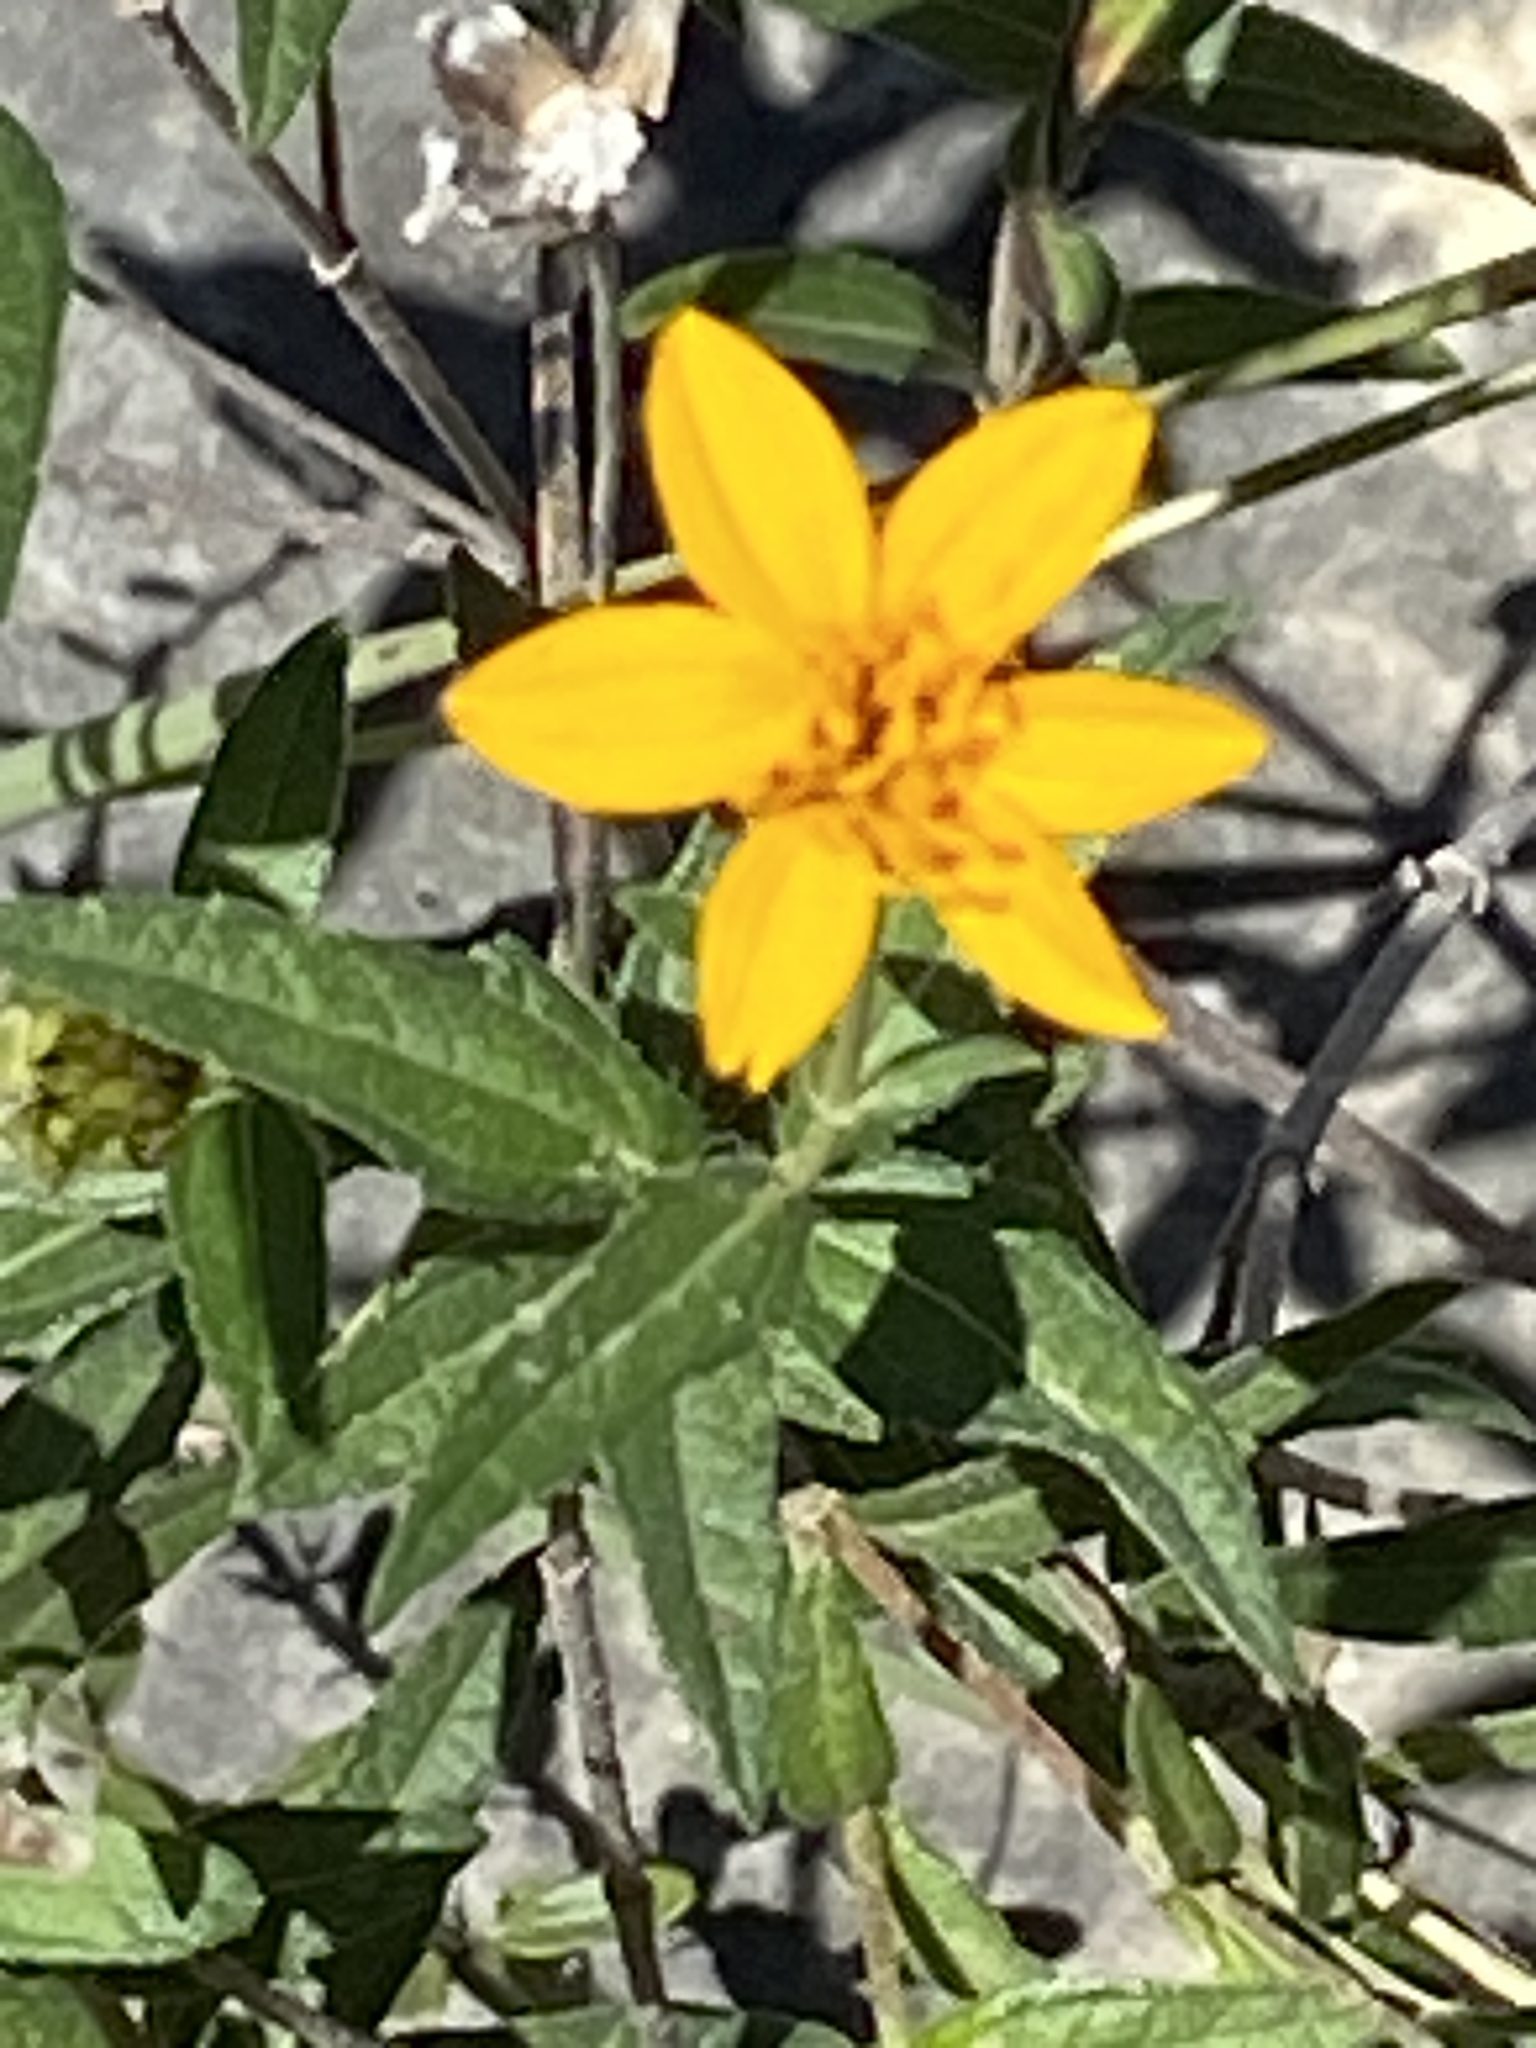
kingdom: Plantae
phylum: Tracheophyta
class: Magnoliopsida
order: Asterales
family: Asteraceae
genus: Wedelia
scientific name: Wedelia acapulcensis
